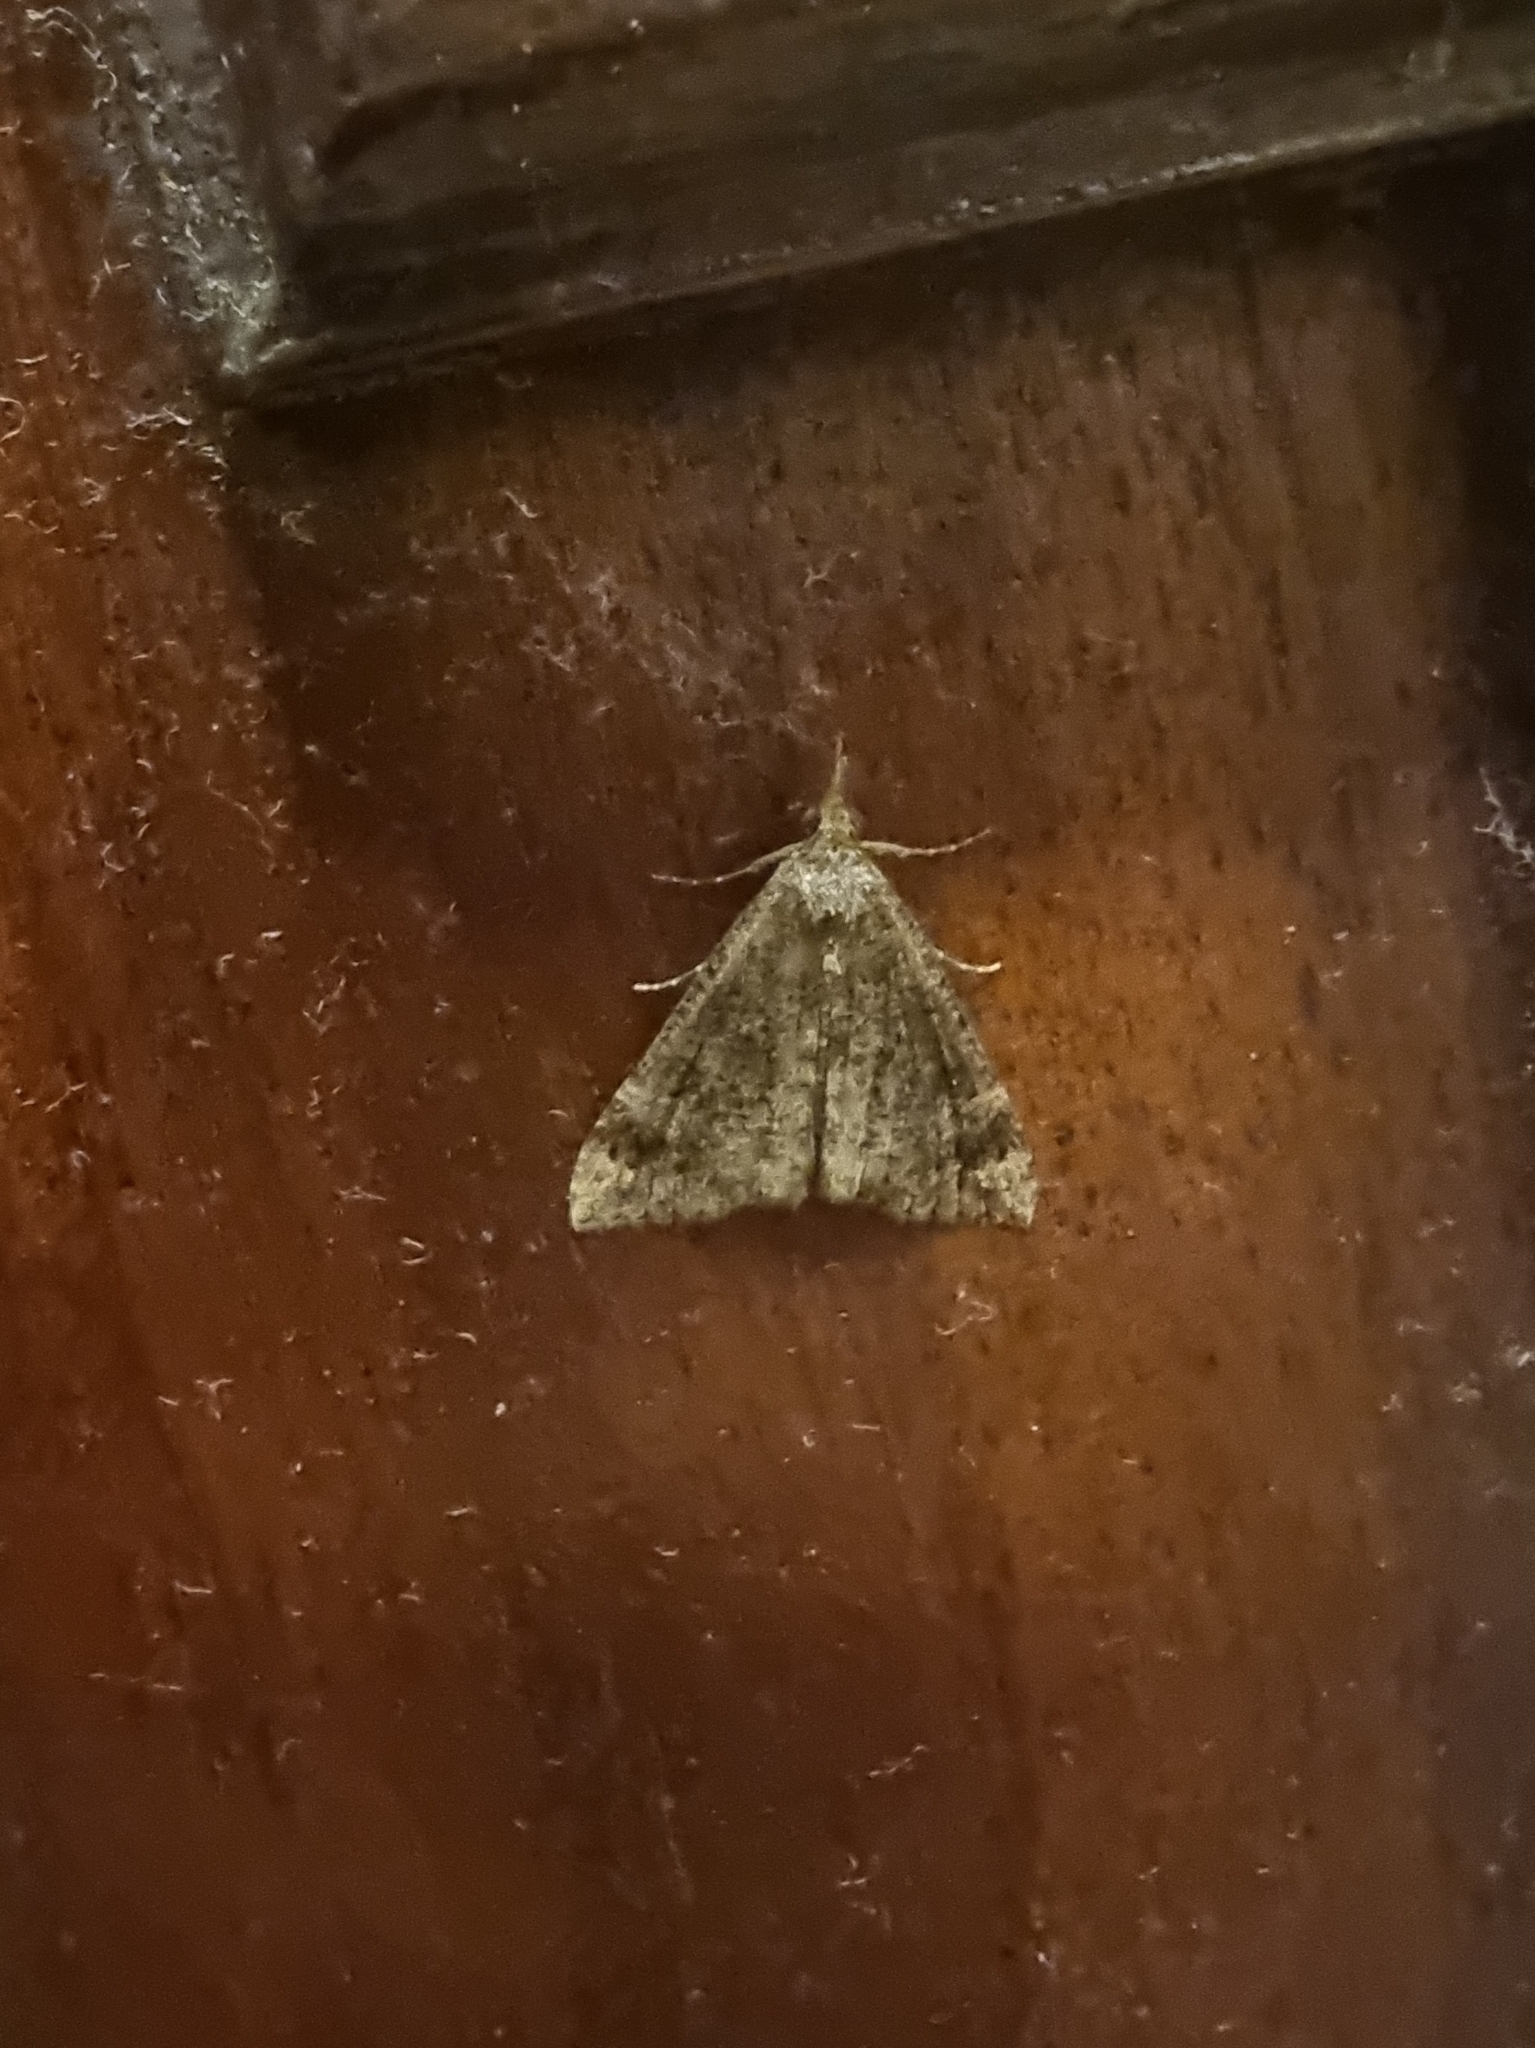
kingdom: Animalia
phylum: Arthropoda
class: Insecta
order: Lepidoptera
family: Erebidae
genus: Hypena
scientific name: Hypena obsitalis
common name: Bloxworth snout
